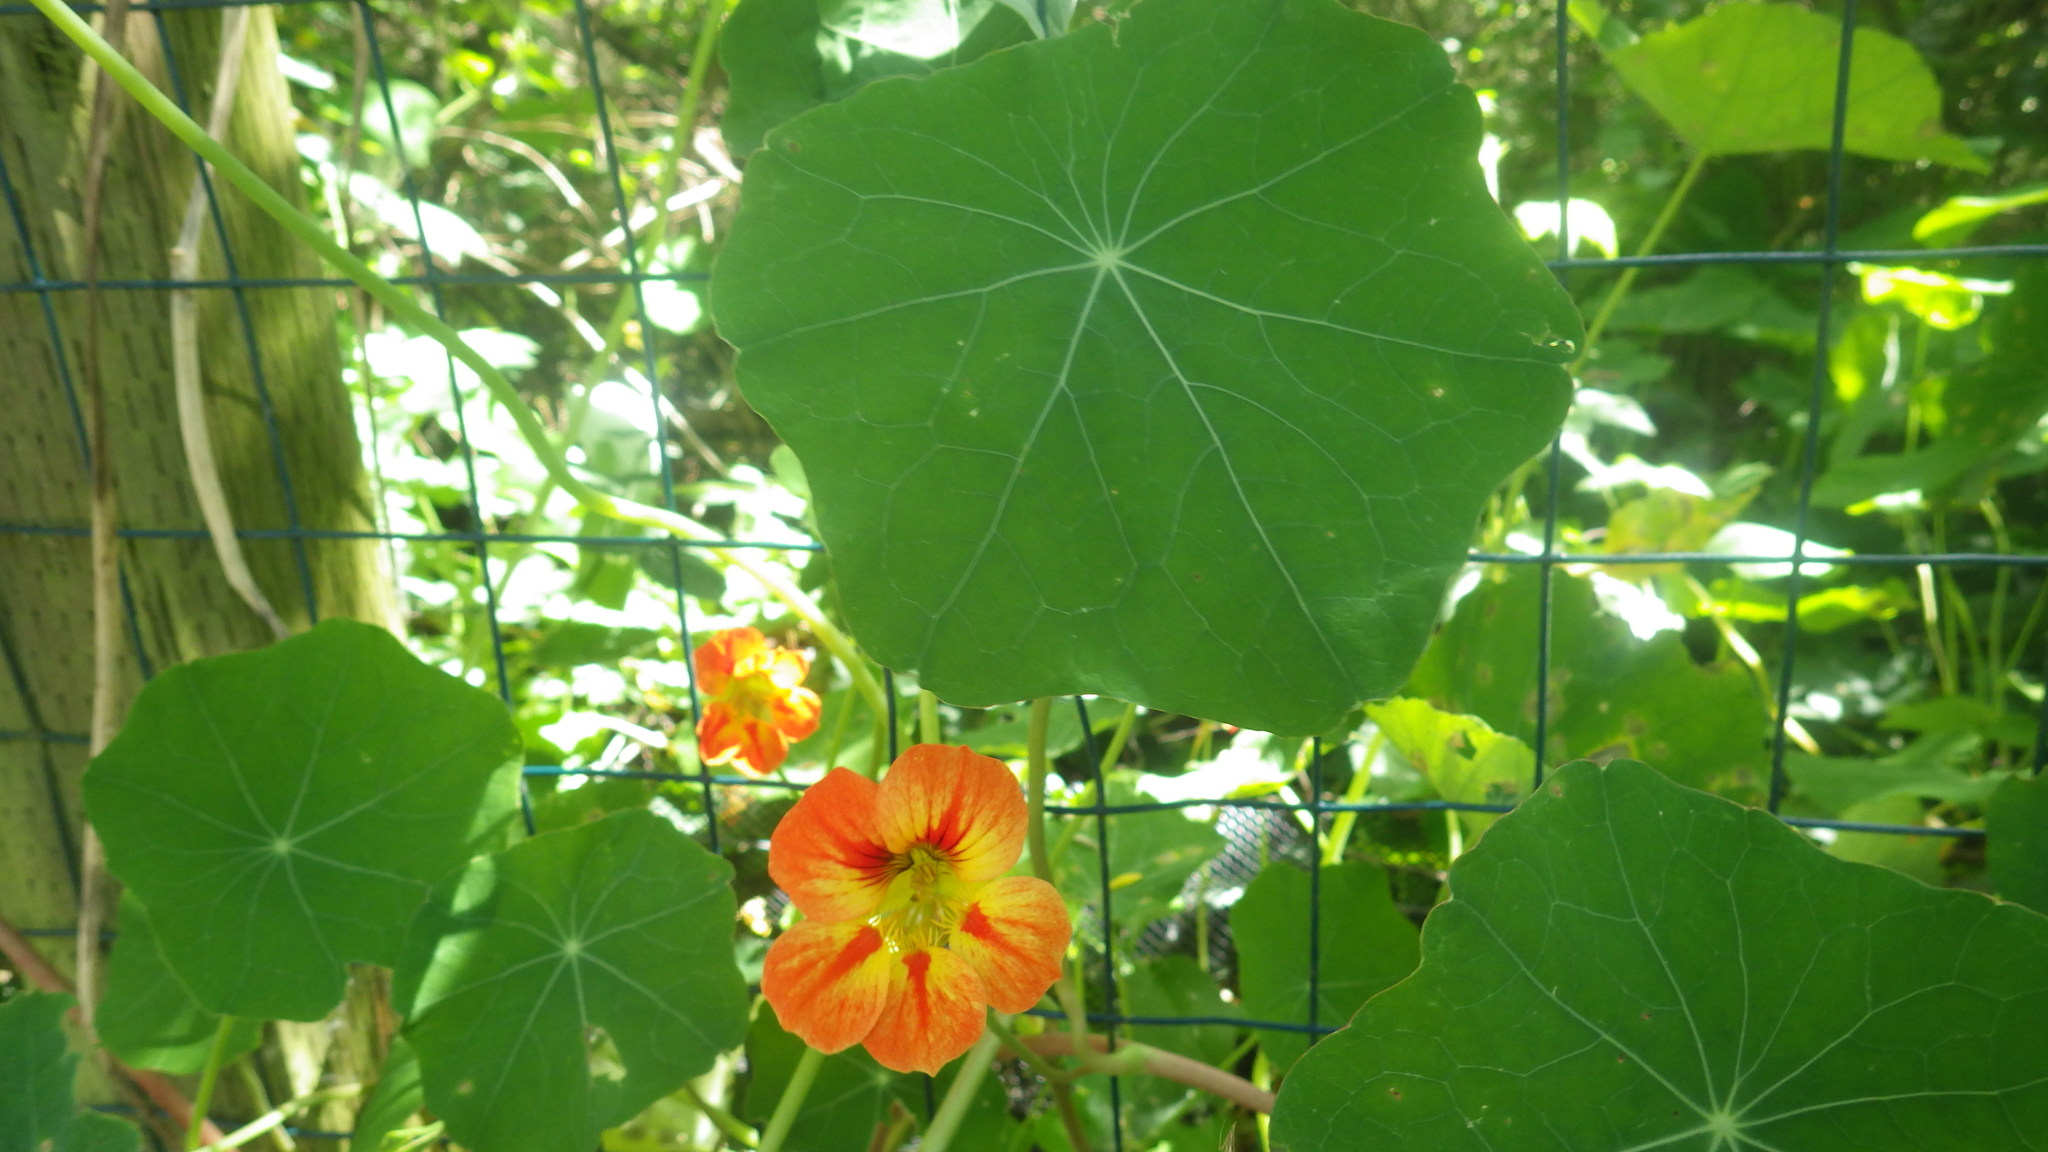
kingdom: Plantae
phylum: Tracheophyta
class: Magnoliopsida
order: Brassicales
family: Tropaeolaceae
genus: Tropaeolum
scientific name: Tropaeolum majus
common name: Nasturtium
